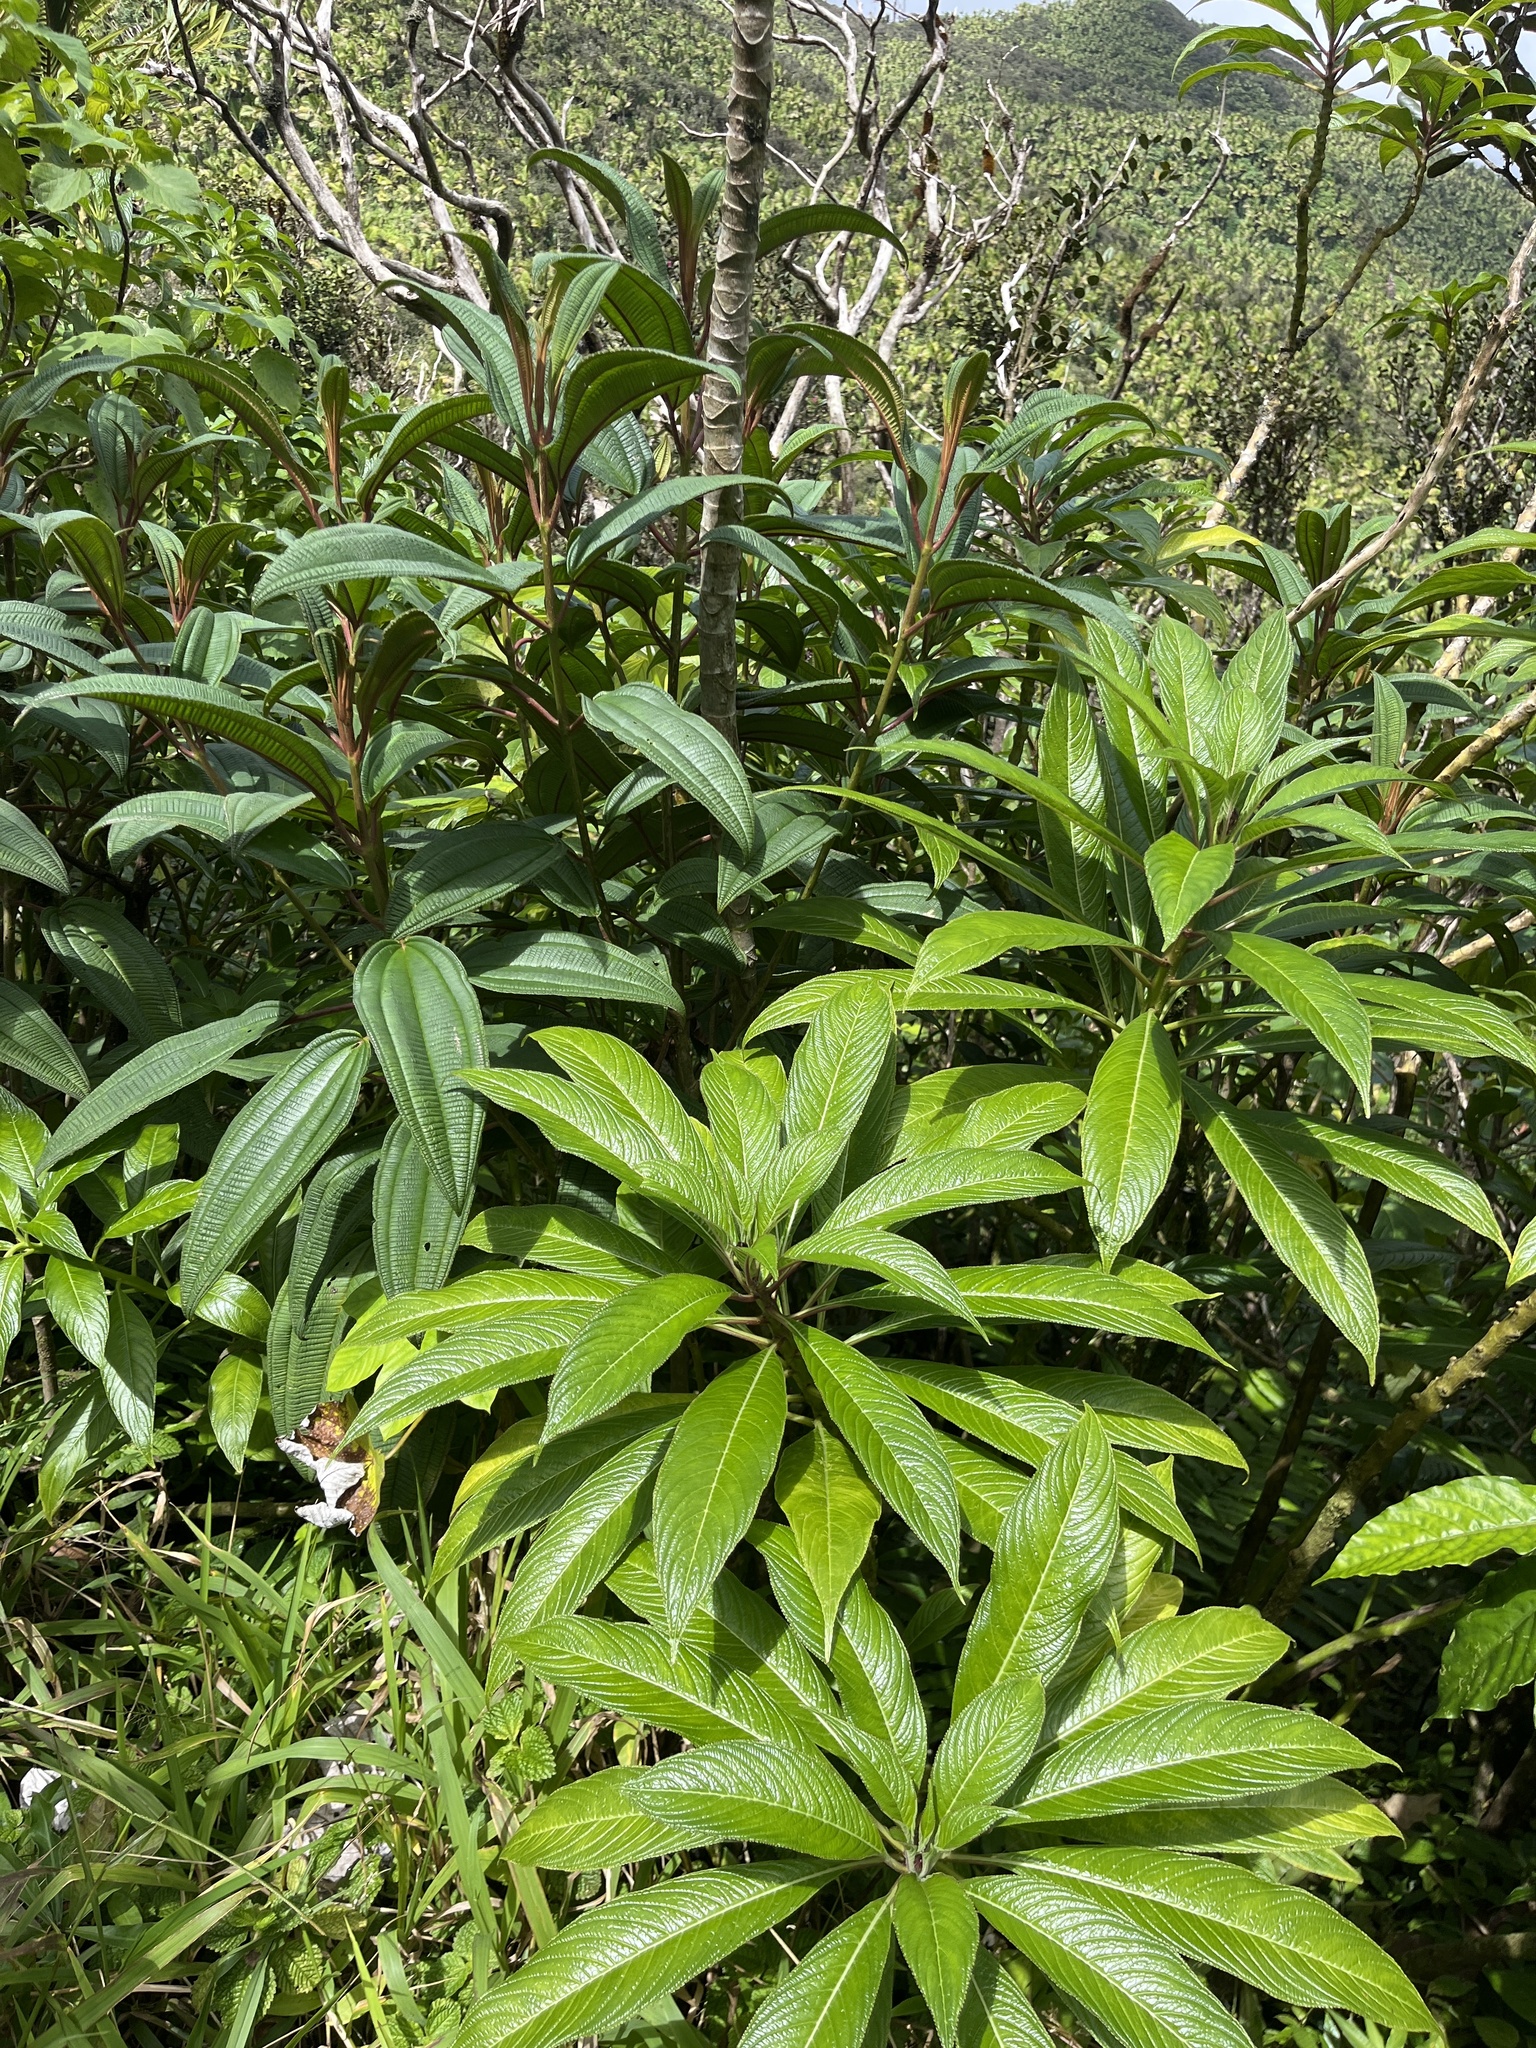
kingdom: Plantae
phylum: Tracheophyta
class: Magnoliopsida
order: Asterales
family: Campanulaceae
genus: Lobelia
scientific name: Lobelia portoricensis
